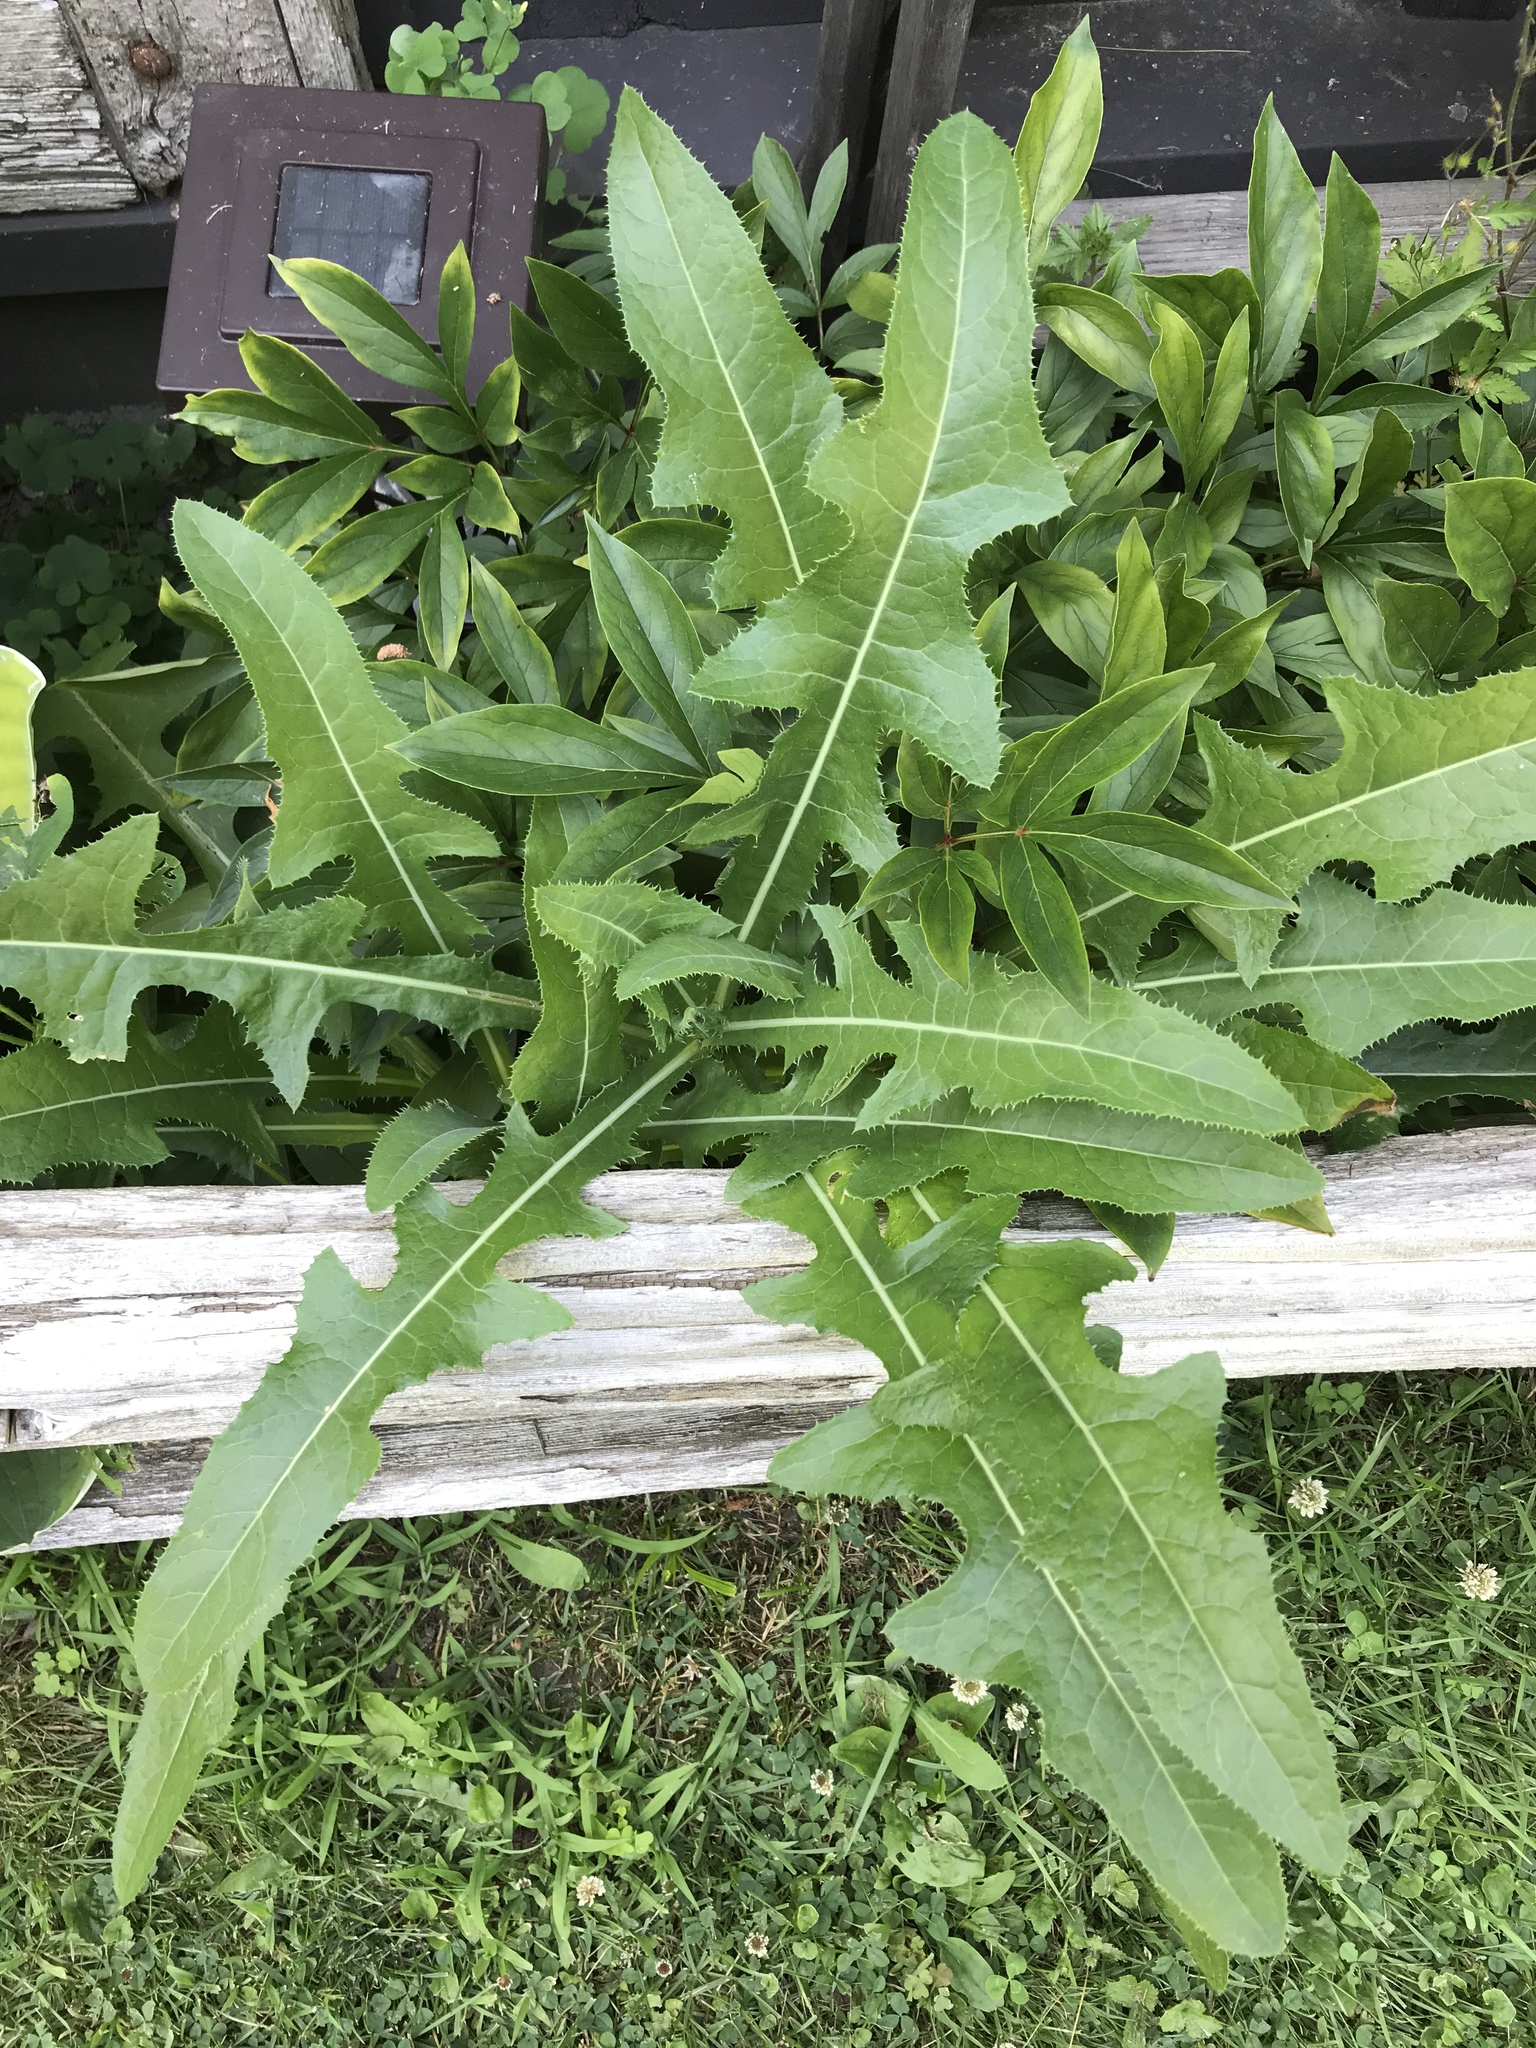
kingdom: Plantae
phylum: Tracheophyta
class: Magnoliopsida
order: Asterales
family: Asteraceae
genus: Sonchus
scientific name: Sonchus arvensis
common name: Perennial sow-thistle
